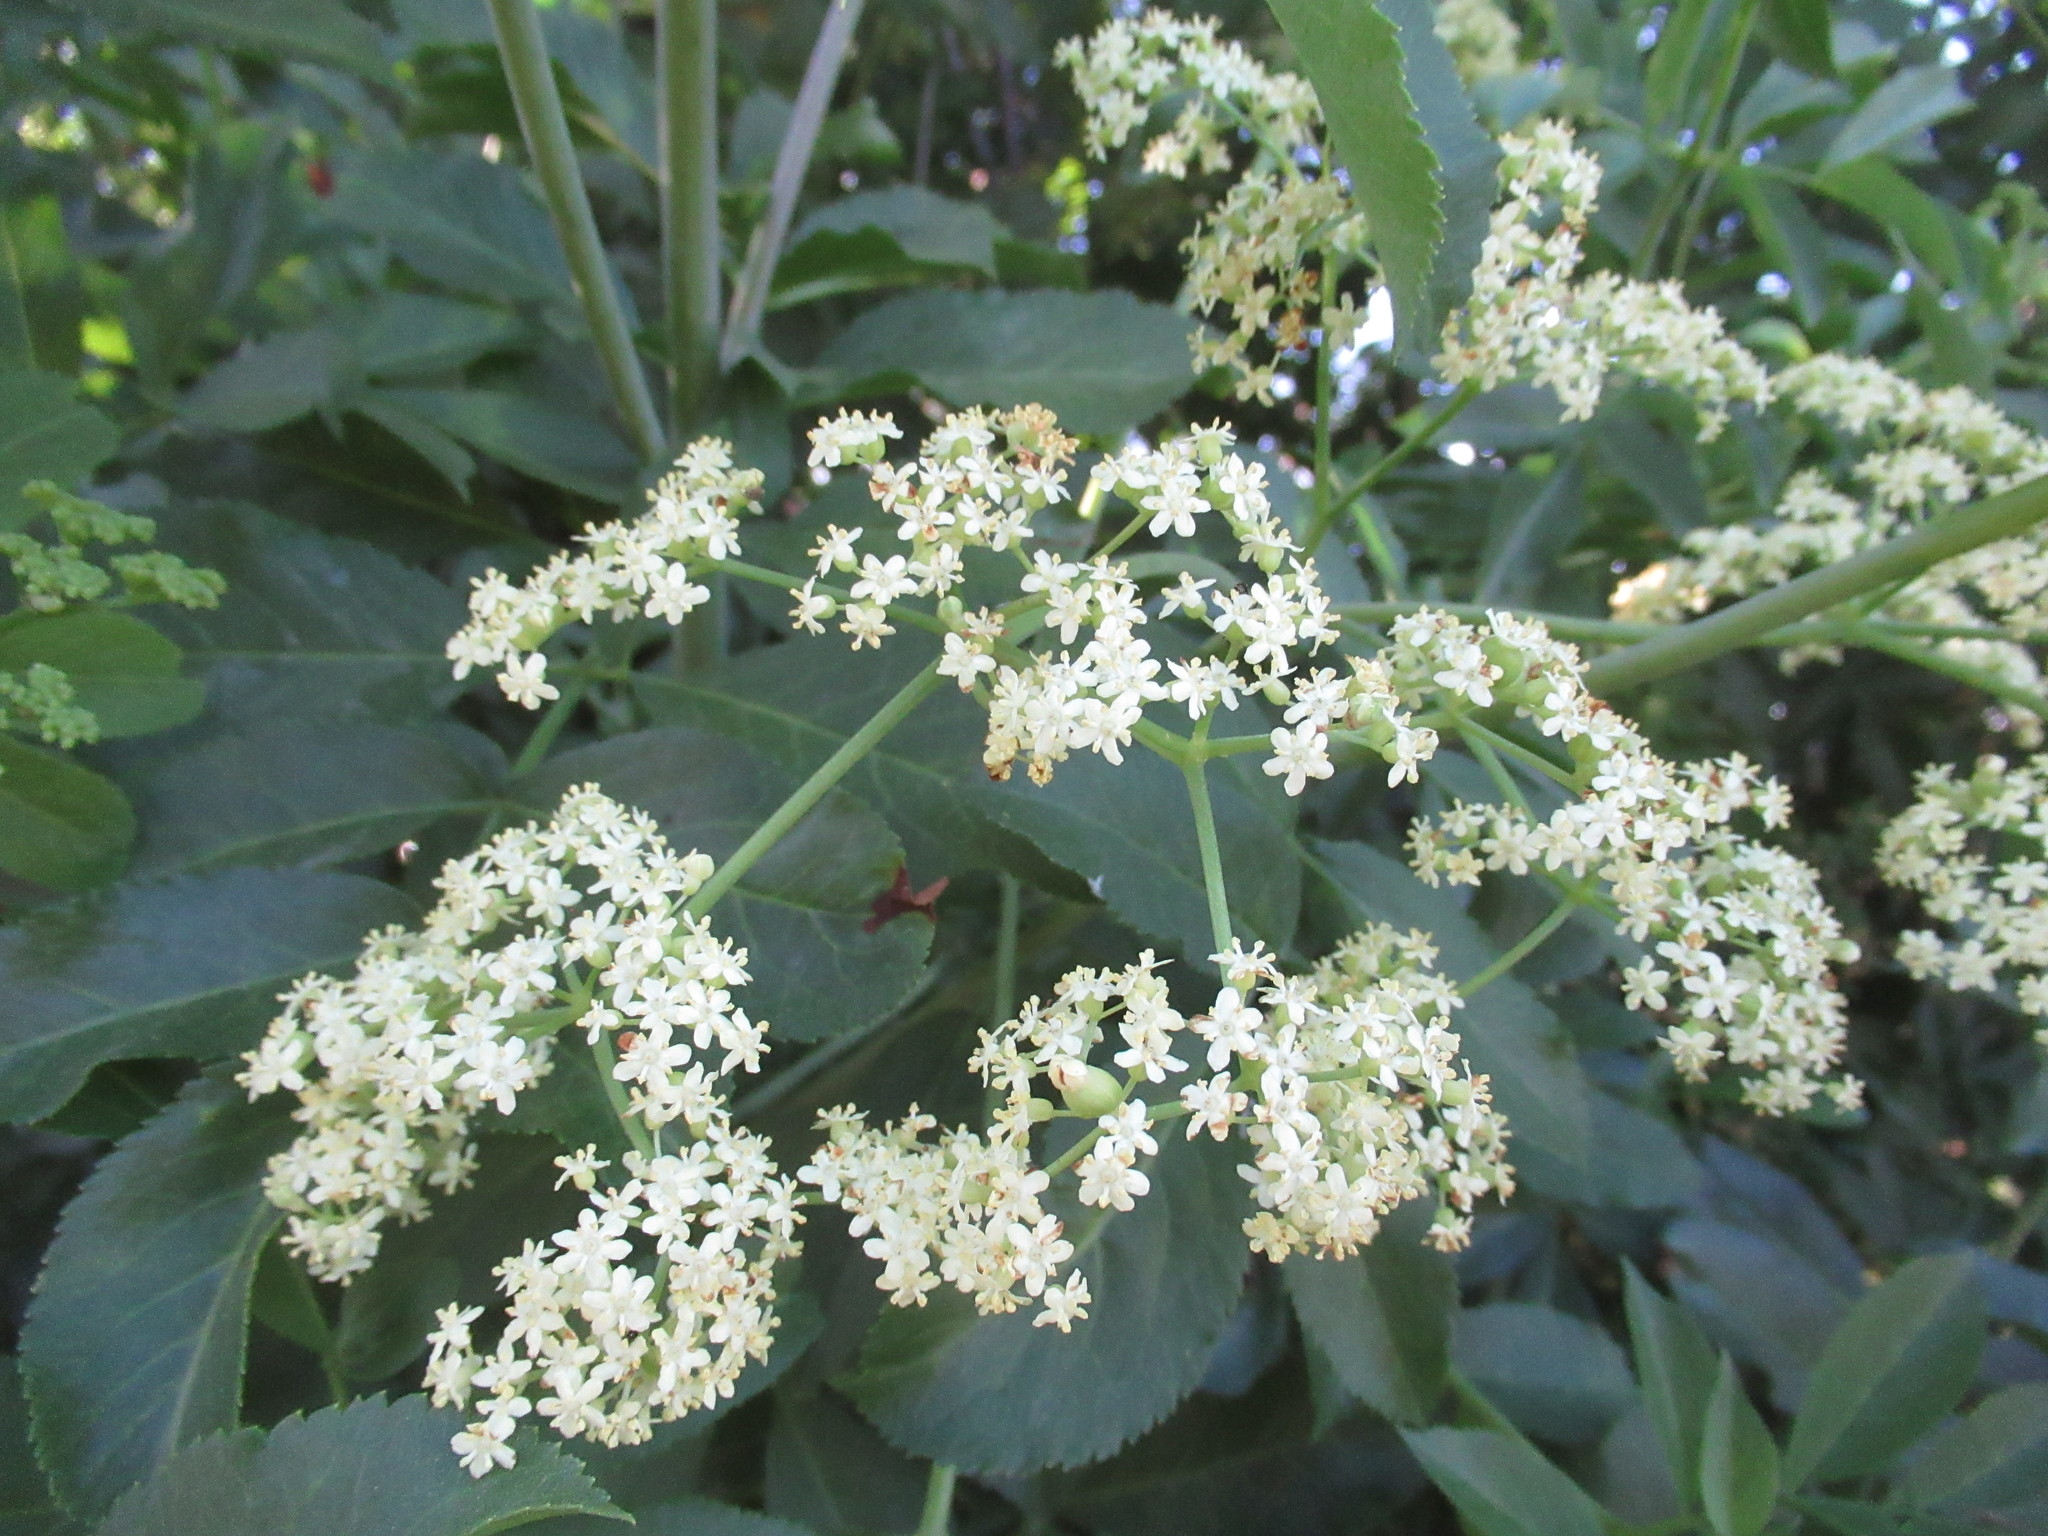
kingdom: Plantae
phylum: Tracheophyta
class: Magnoliopsida
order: Dipsacales
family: Viburnaceae
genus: Sambucus
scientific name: Sambucus cerulea
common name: Blue elder
